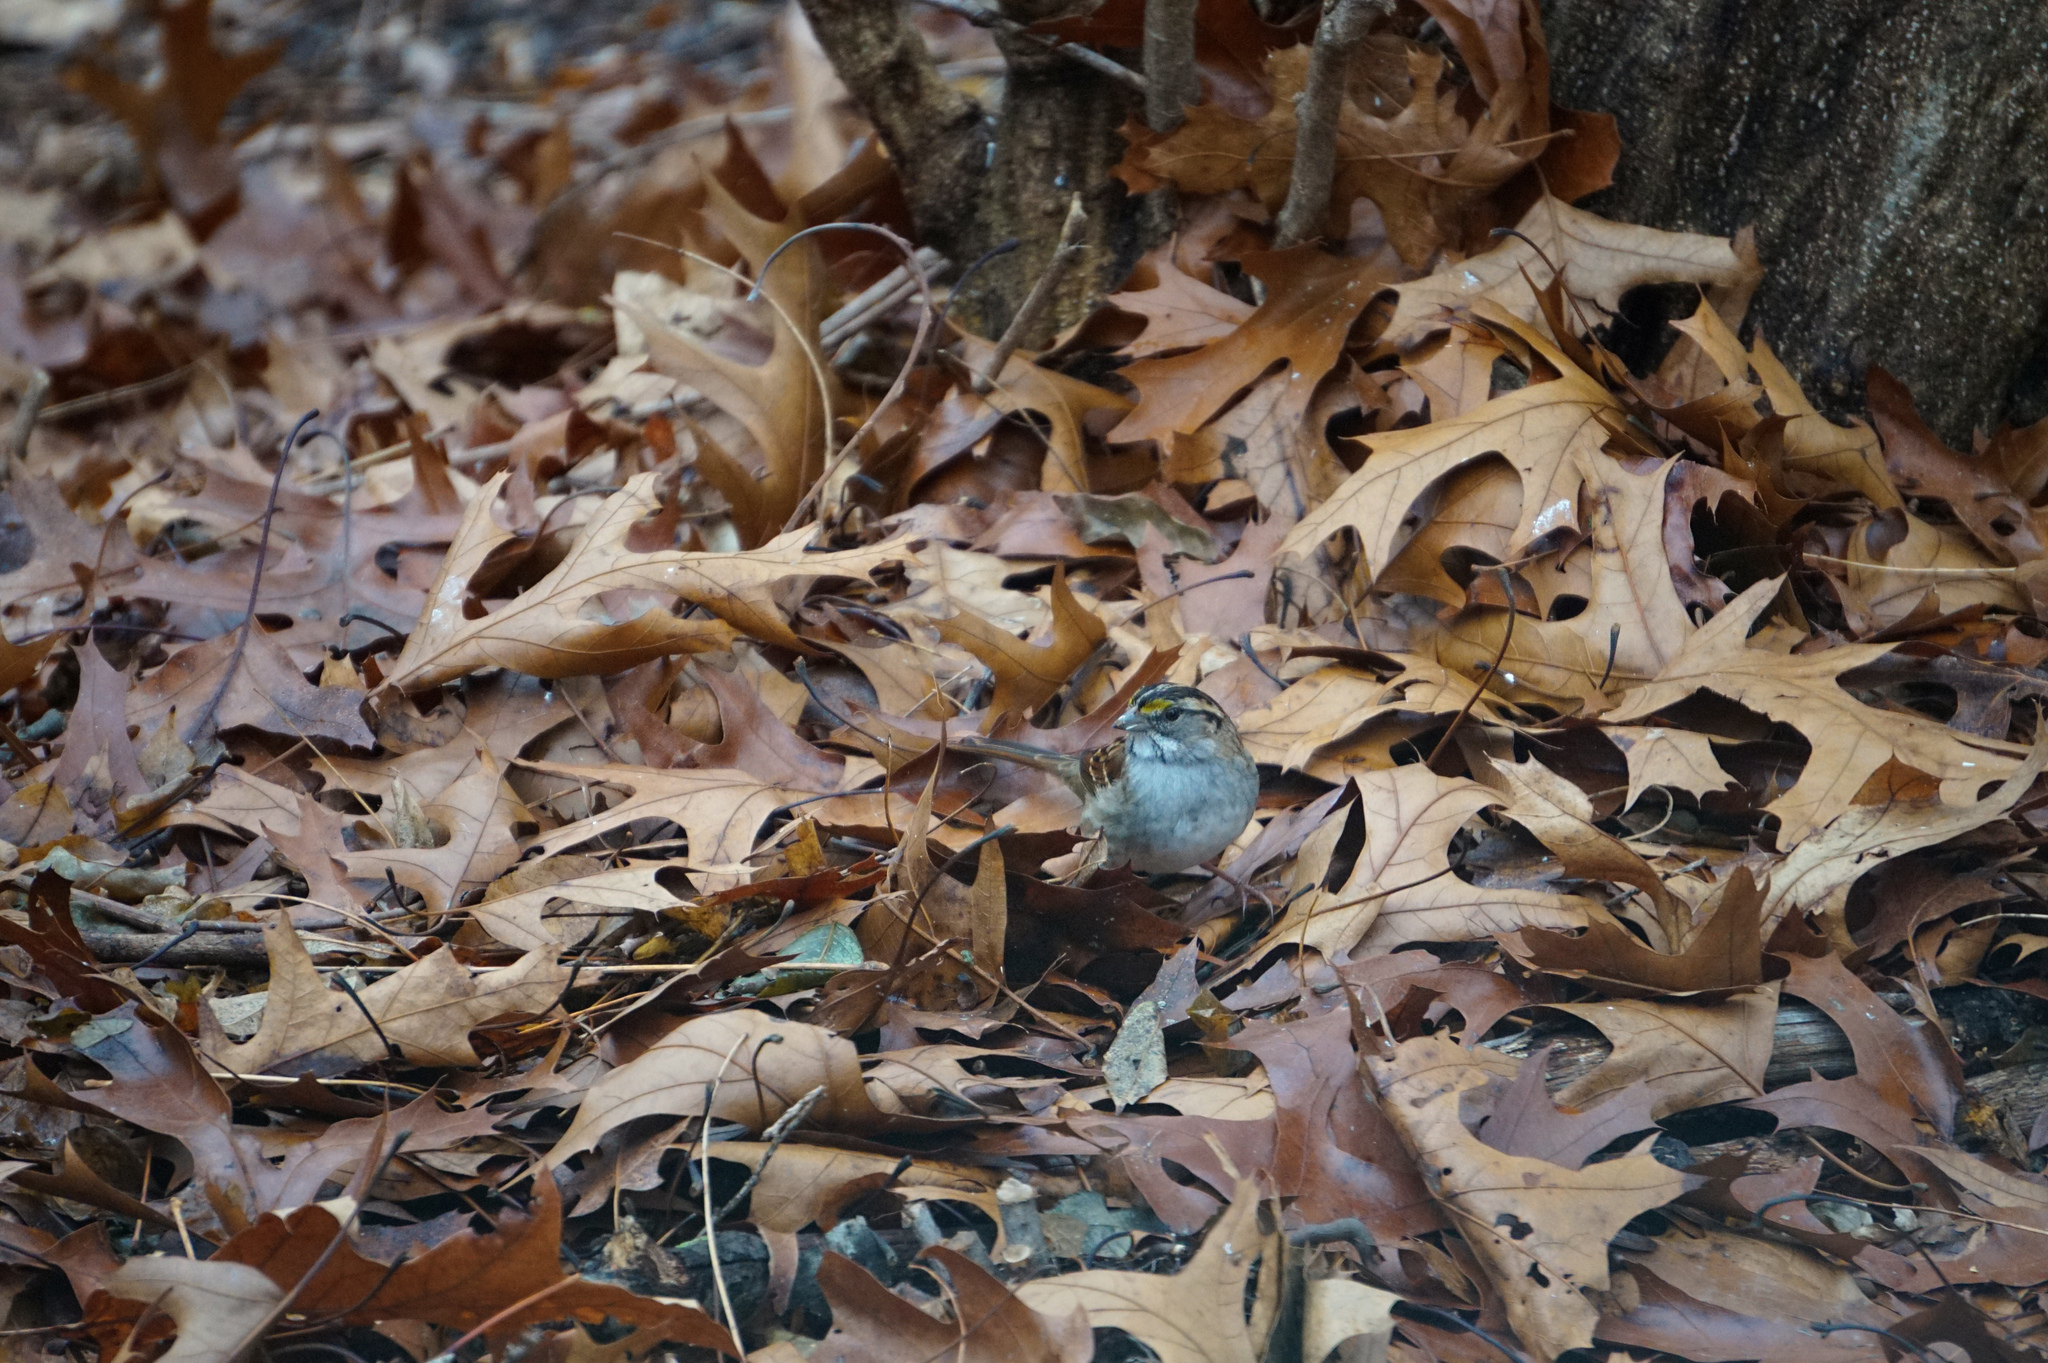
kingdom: Animalia
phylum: Chordata
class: Aves
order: Passeriformes
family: Passerellidae
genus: Zonotrichia
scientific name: Zonotrichia albicollis
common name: White-throated sparrow
